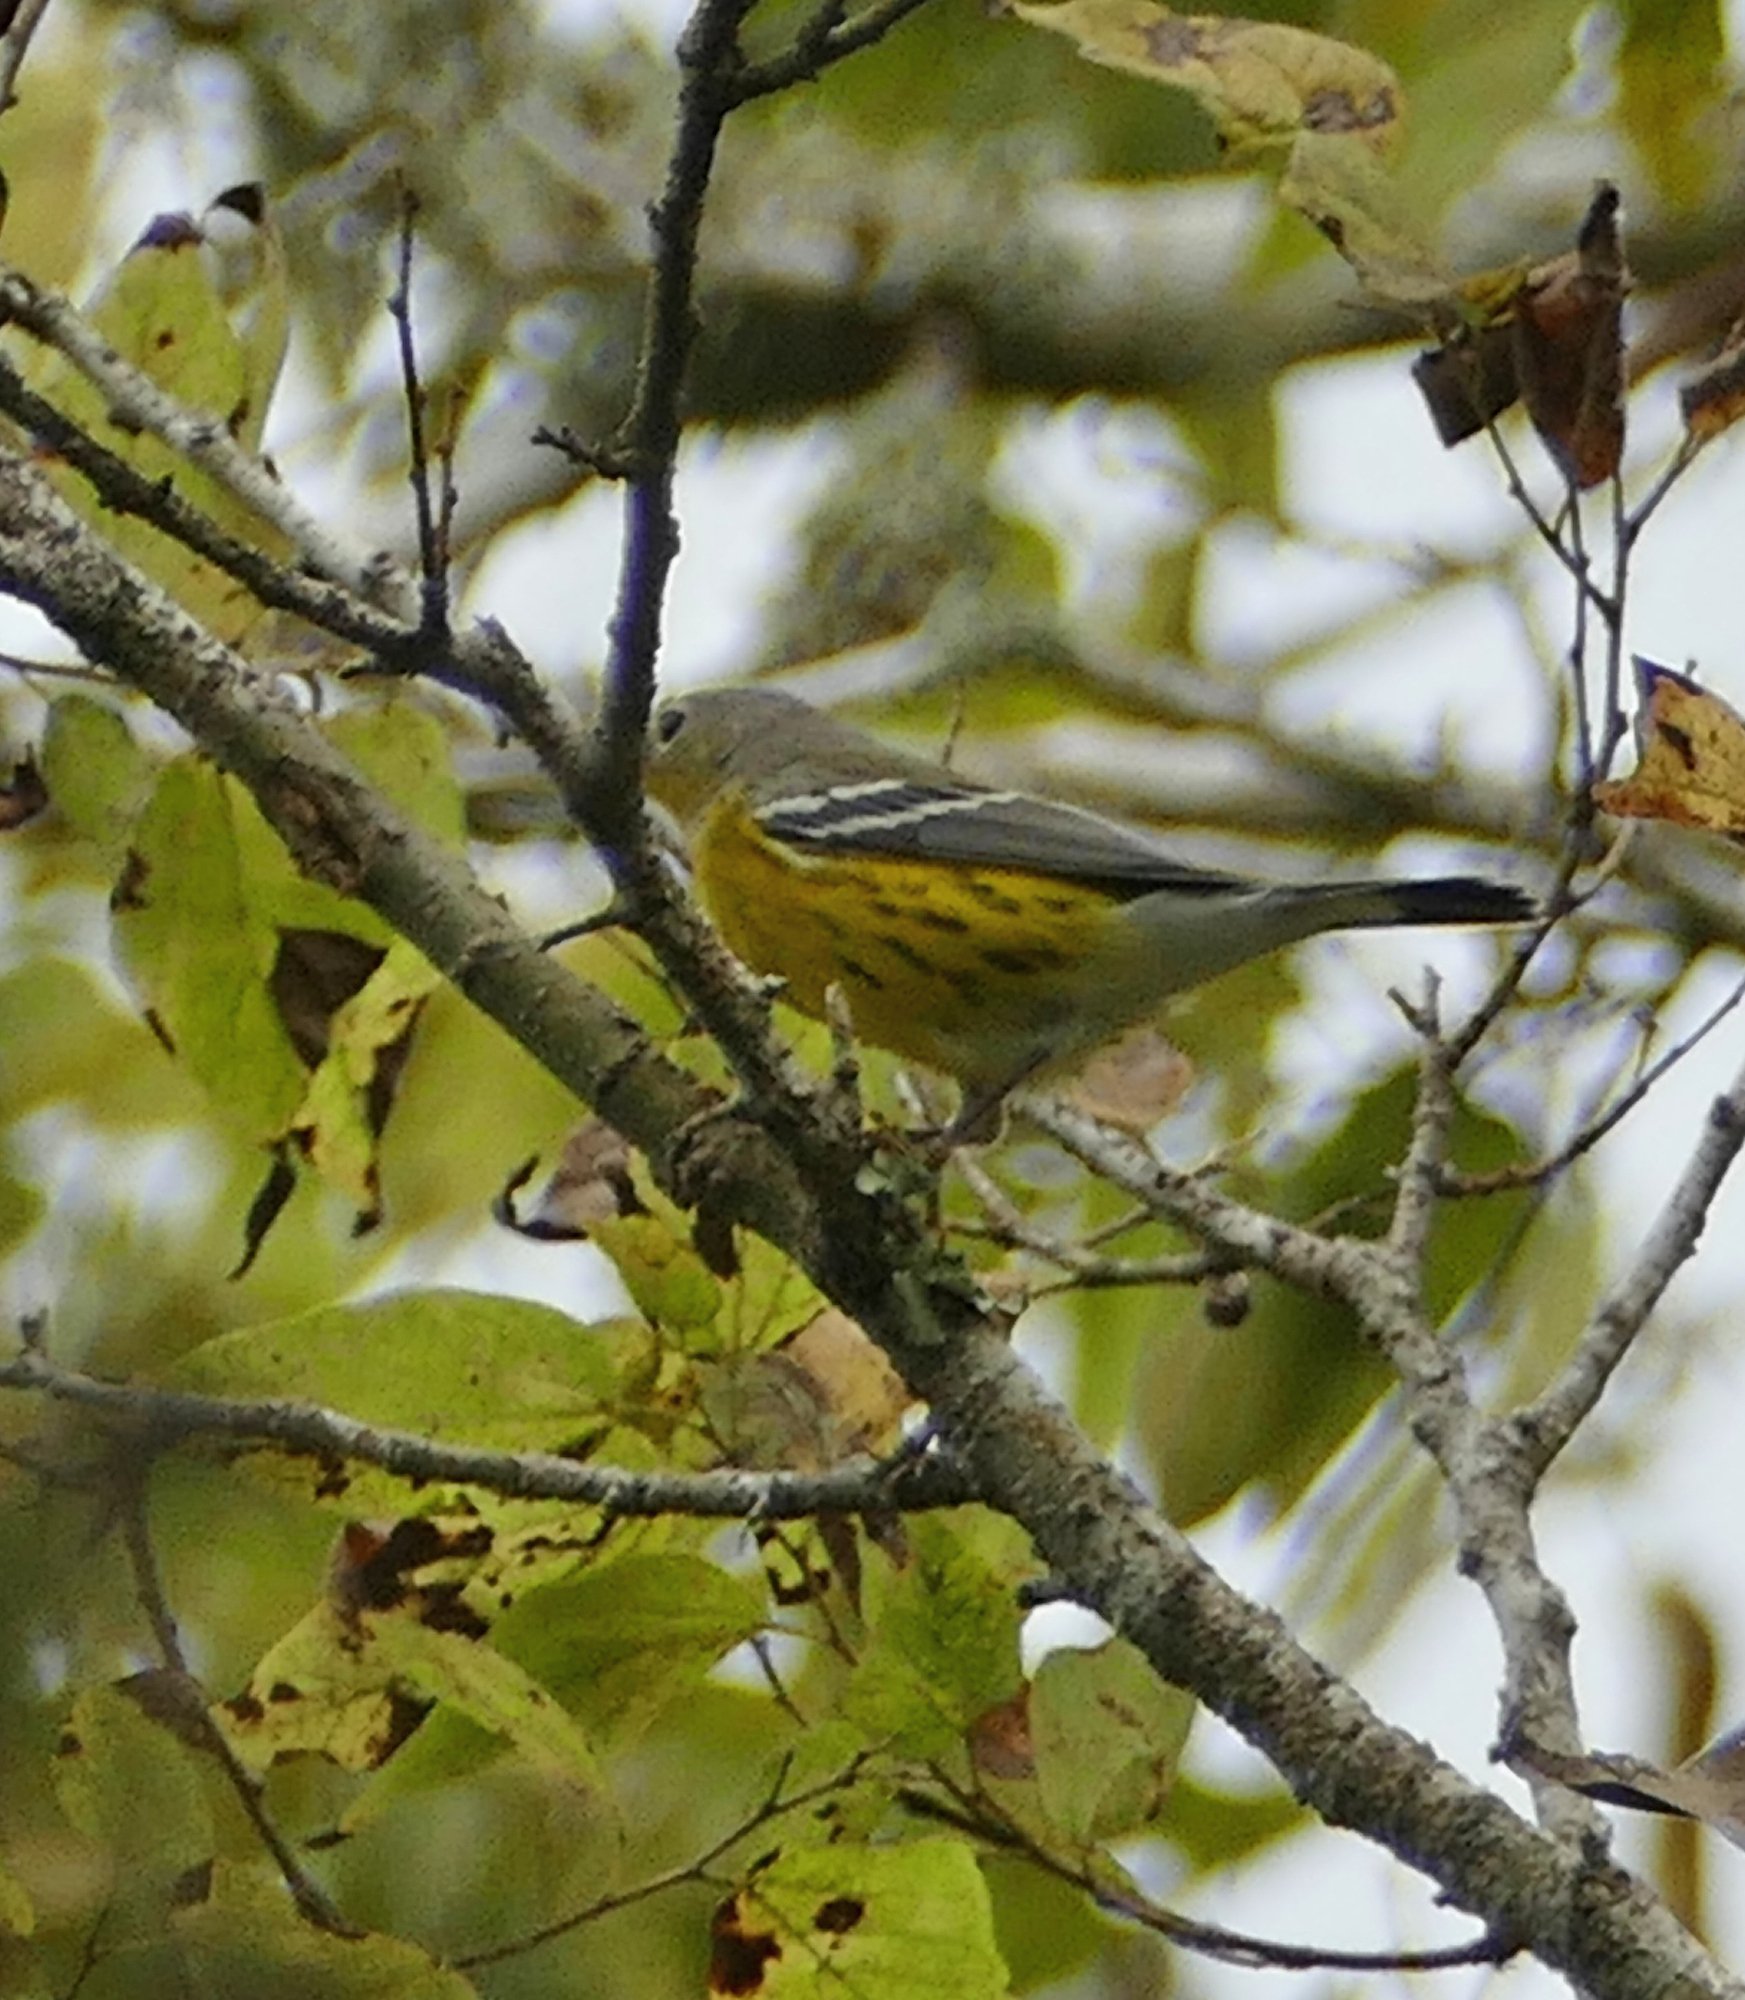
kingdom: Animalia
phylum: Chordata
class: Aves
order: Passeriformes
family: Parulidae
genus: Setophaga
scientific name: Setophaga magnolia
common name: Magnolia warbler
